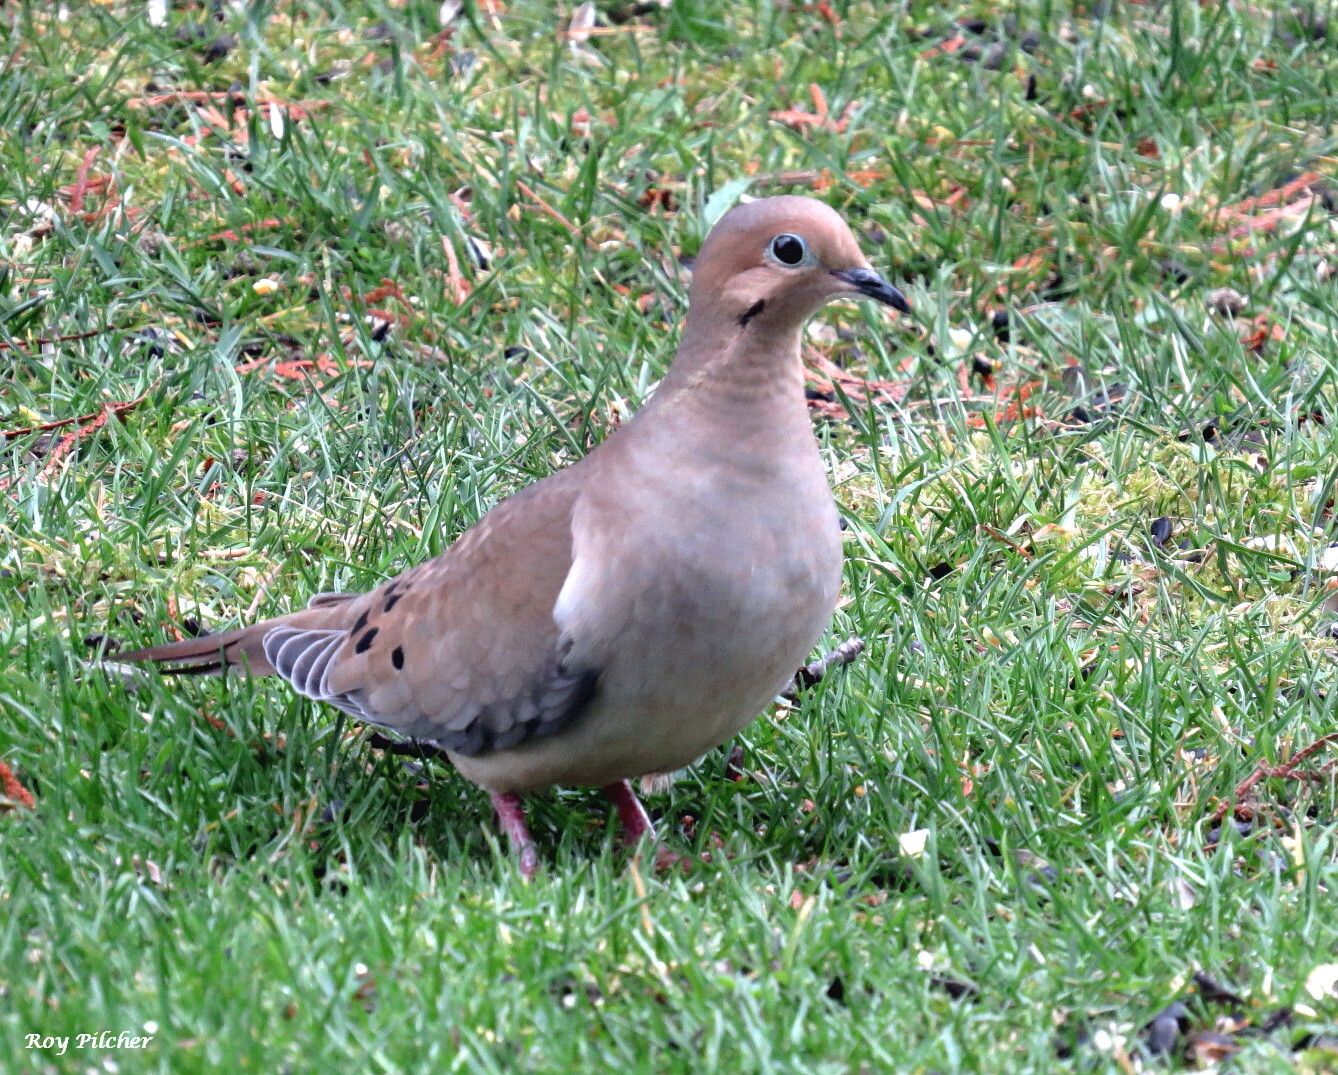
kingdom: Animalia
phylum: Chordata
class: Aves
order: Columbiformes
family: Columbidae
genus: Zenaida
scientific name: Zenaida macroura
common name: Mourning dove
